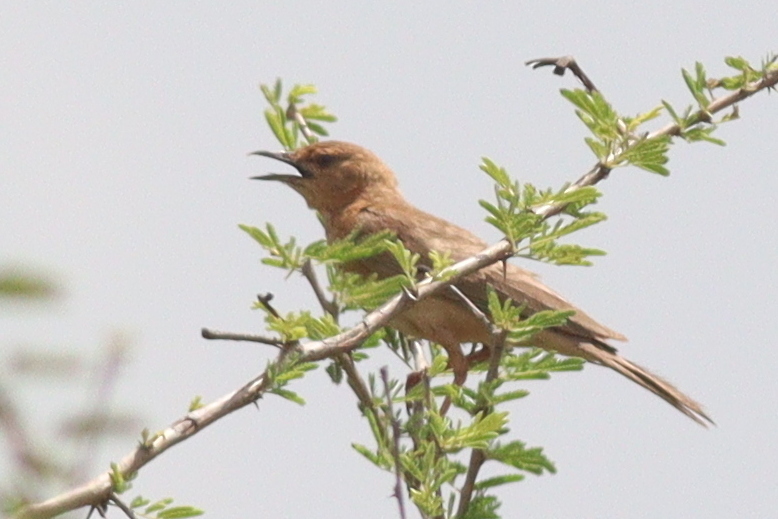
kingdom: Animalia
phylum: Chordata
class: Aves
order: Passeriformes
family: Alaudidae
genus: Calendulauda
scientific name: Calendulauda poecilosterna
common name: Pink-breasted lark
